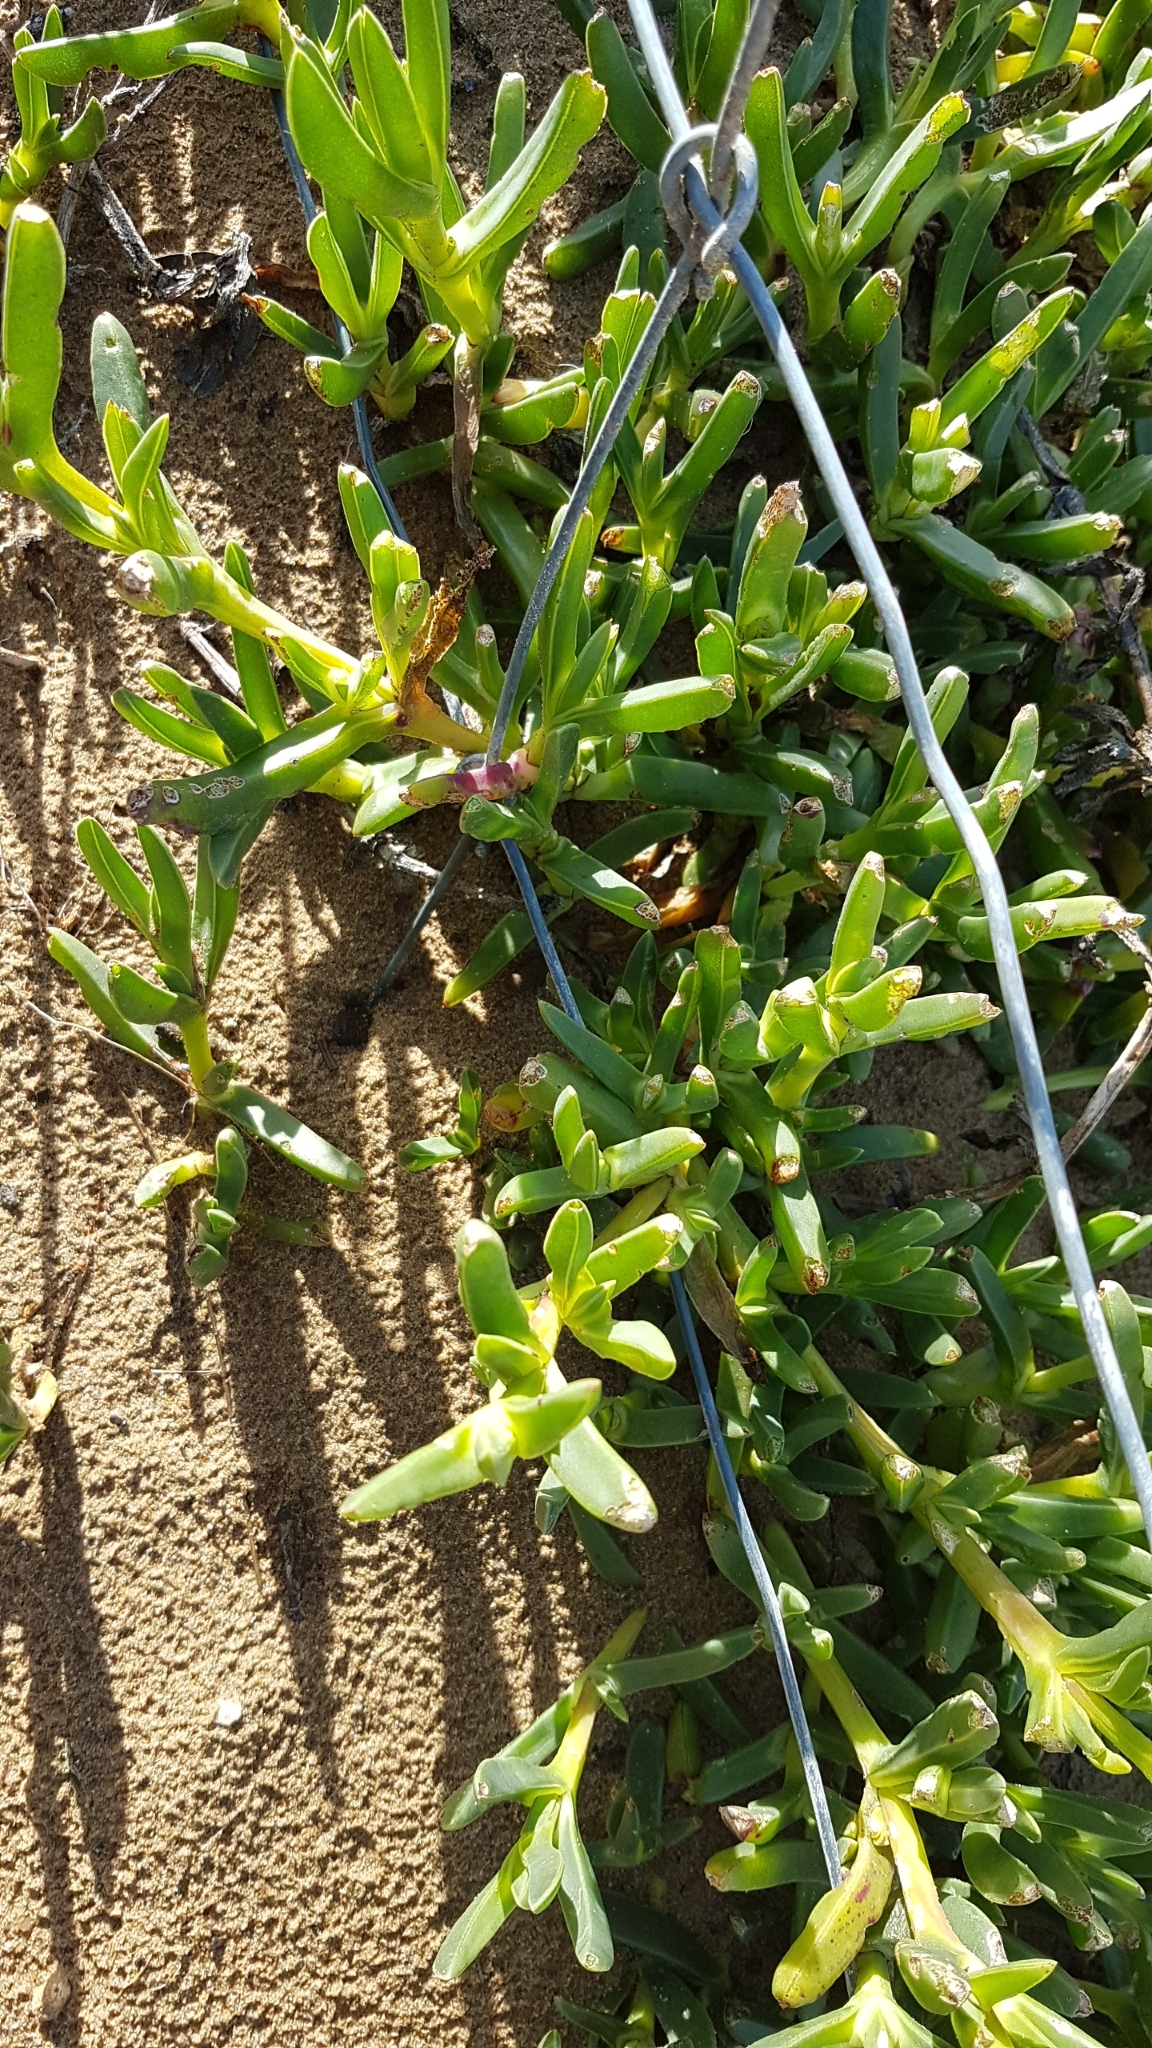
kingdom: Plantae
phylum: Tracheophyta
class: Magnoliopsida
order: Caryophyllales
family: Aizoaceae
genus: Carpobrotus
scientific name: Carpobrotus rossii
